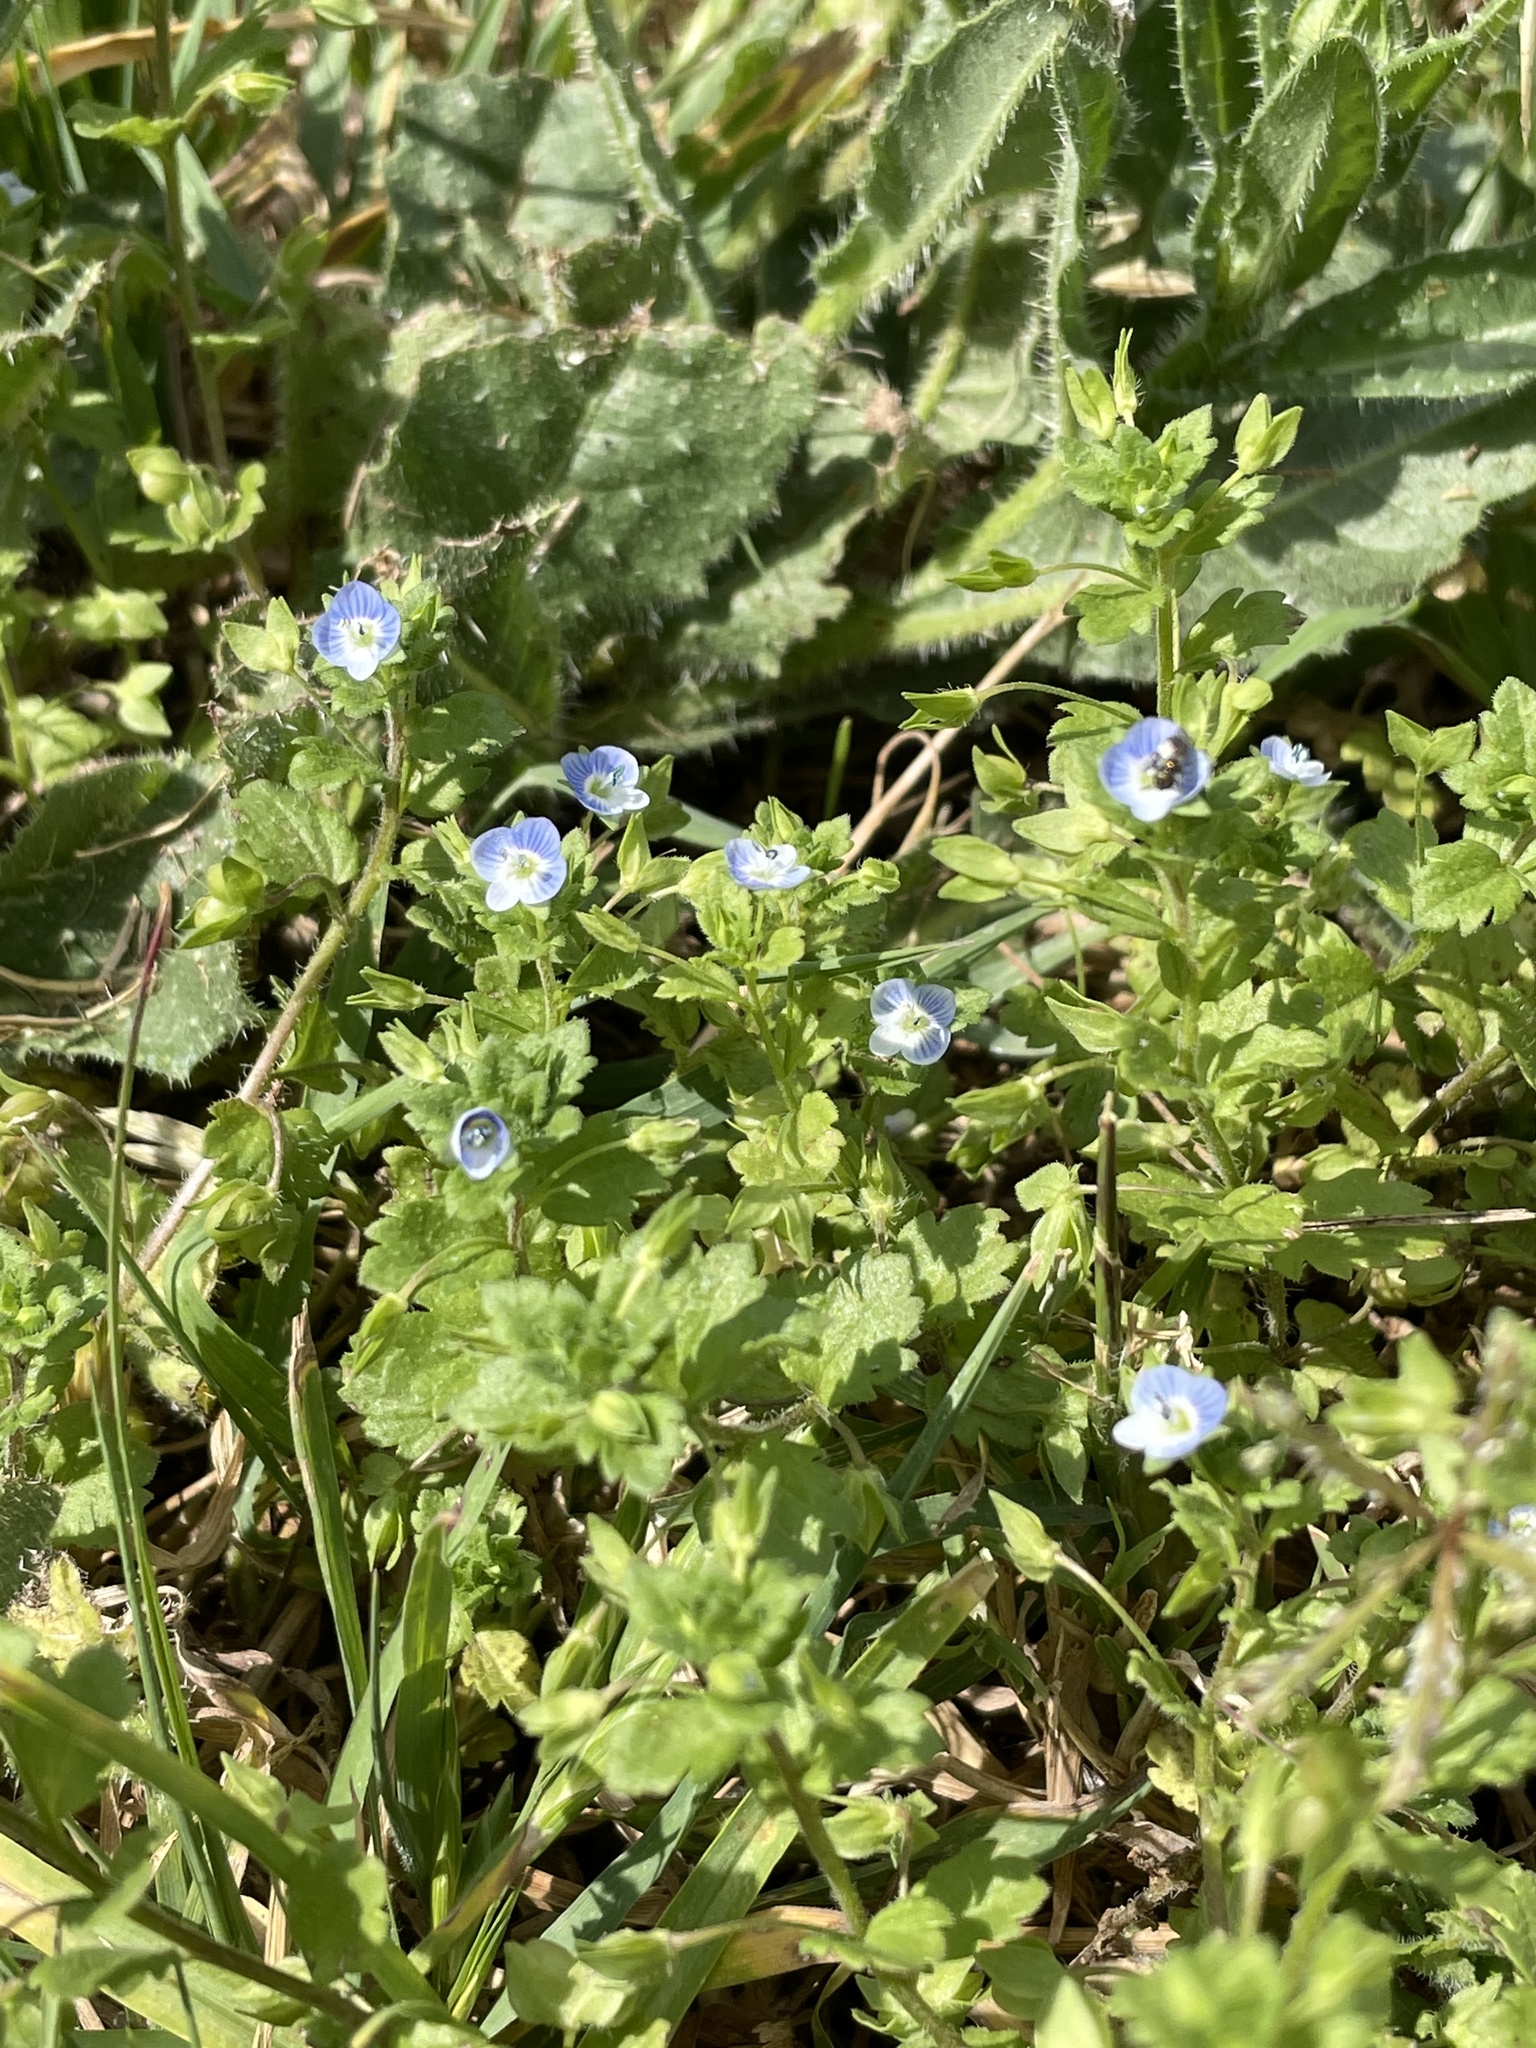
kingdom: Plantae
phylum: Tracheophyta
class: Magnoliopsida
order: Lamiales
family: Plantaginaceae
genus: Veronica
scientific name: Veronica persica
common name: Common field-speedwell
